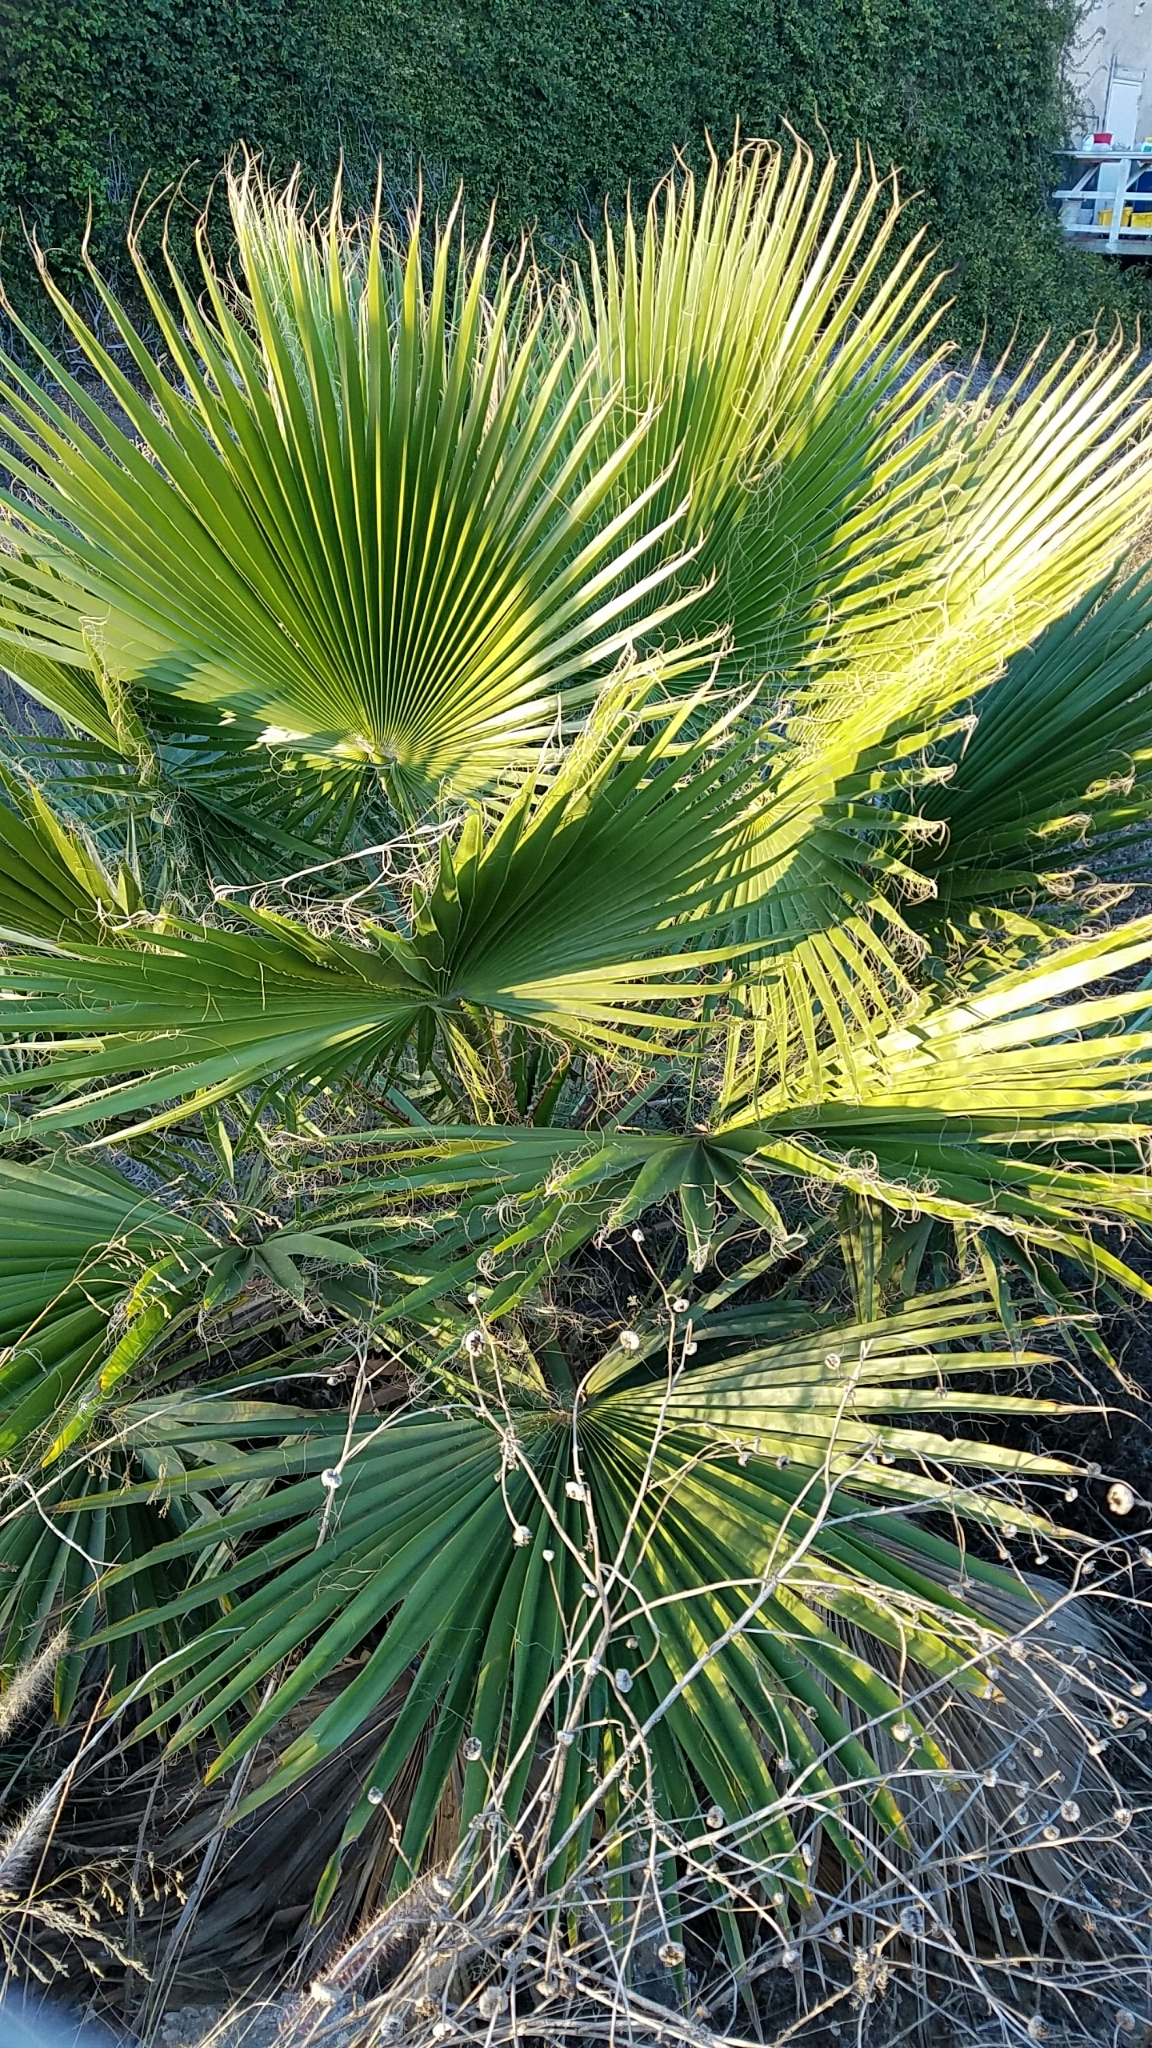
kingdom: Plantae
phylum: Tracheophyta
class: Liliopsida
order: Arecales
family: Arecaceae
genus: Washingtonia
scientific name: Washingtonia robusta
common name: Mexican fan palm
